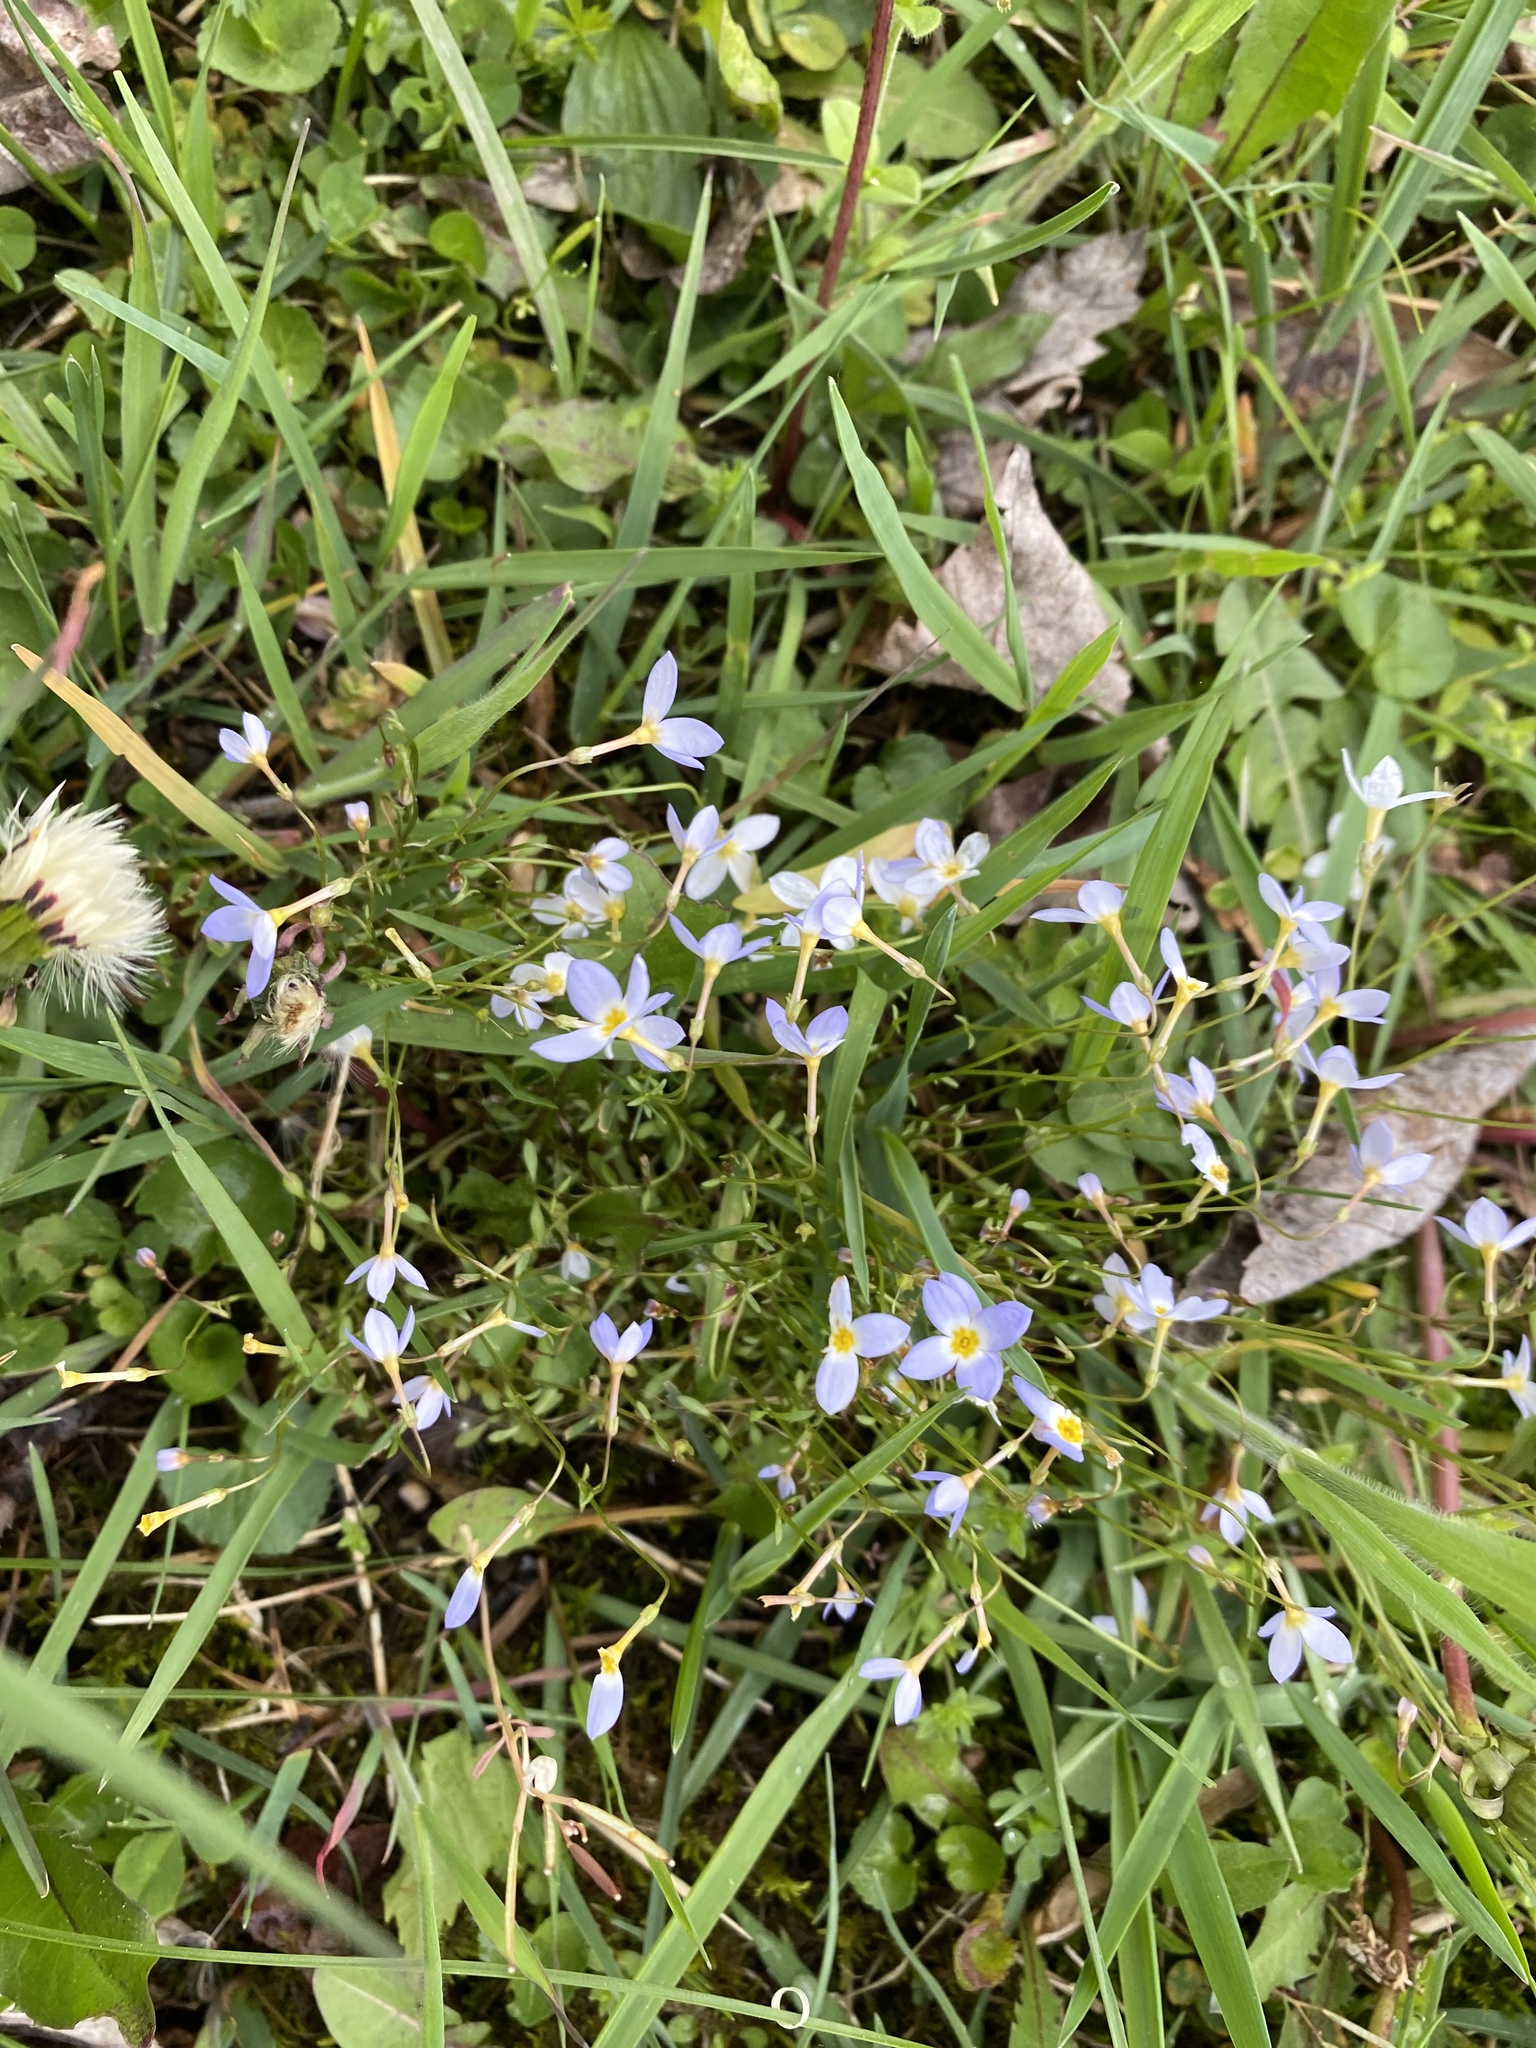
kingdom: Plantae
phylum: Tracheophyta
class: Magnoliopsida
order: Gentianales
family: Rubiaceae
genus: Houstonia
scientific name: Houstonia caerulea
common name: Bluets
